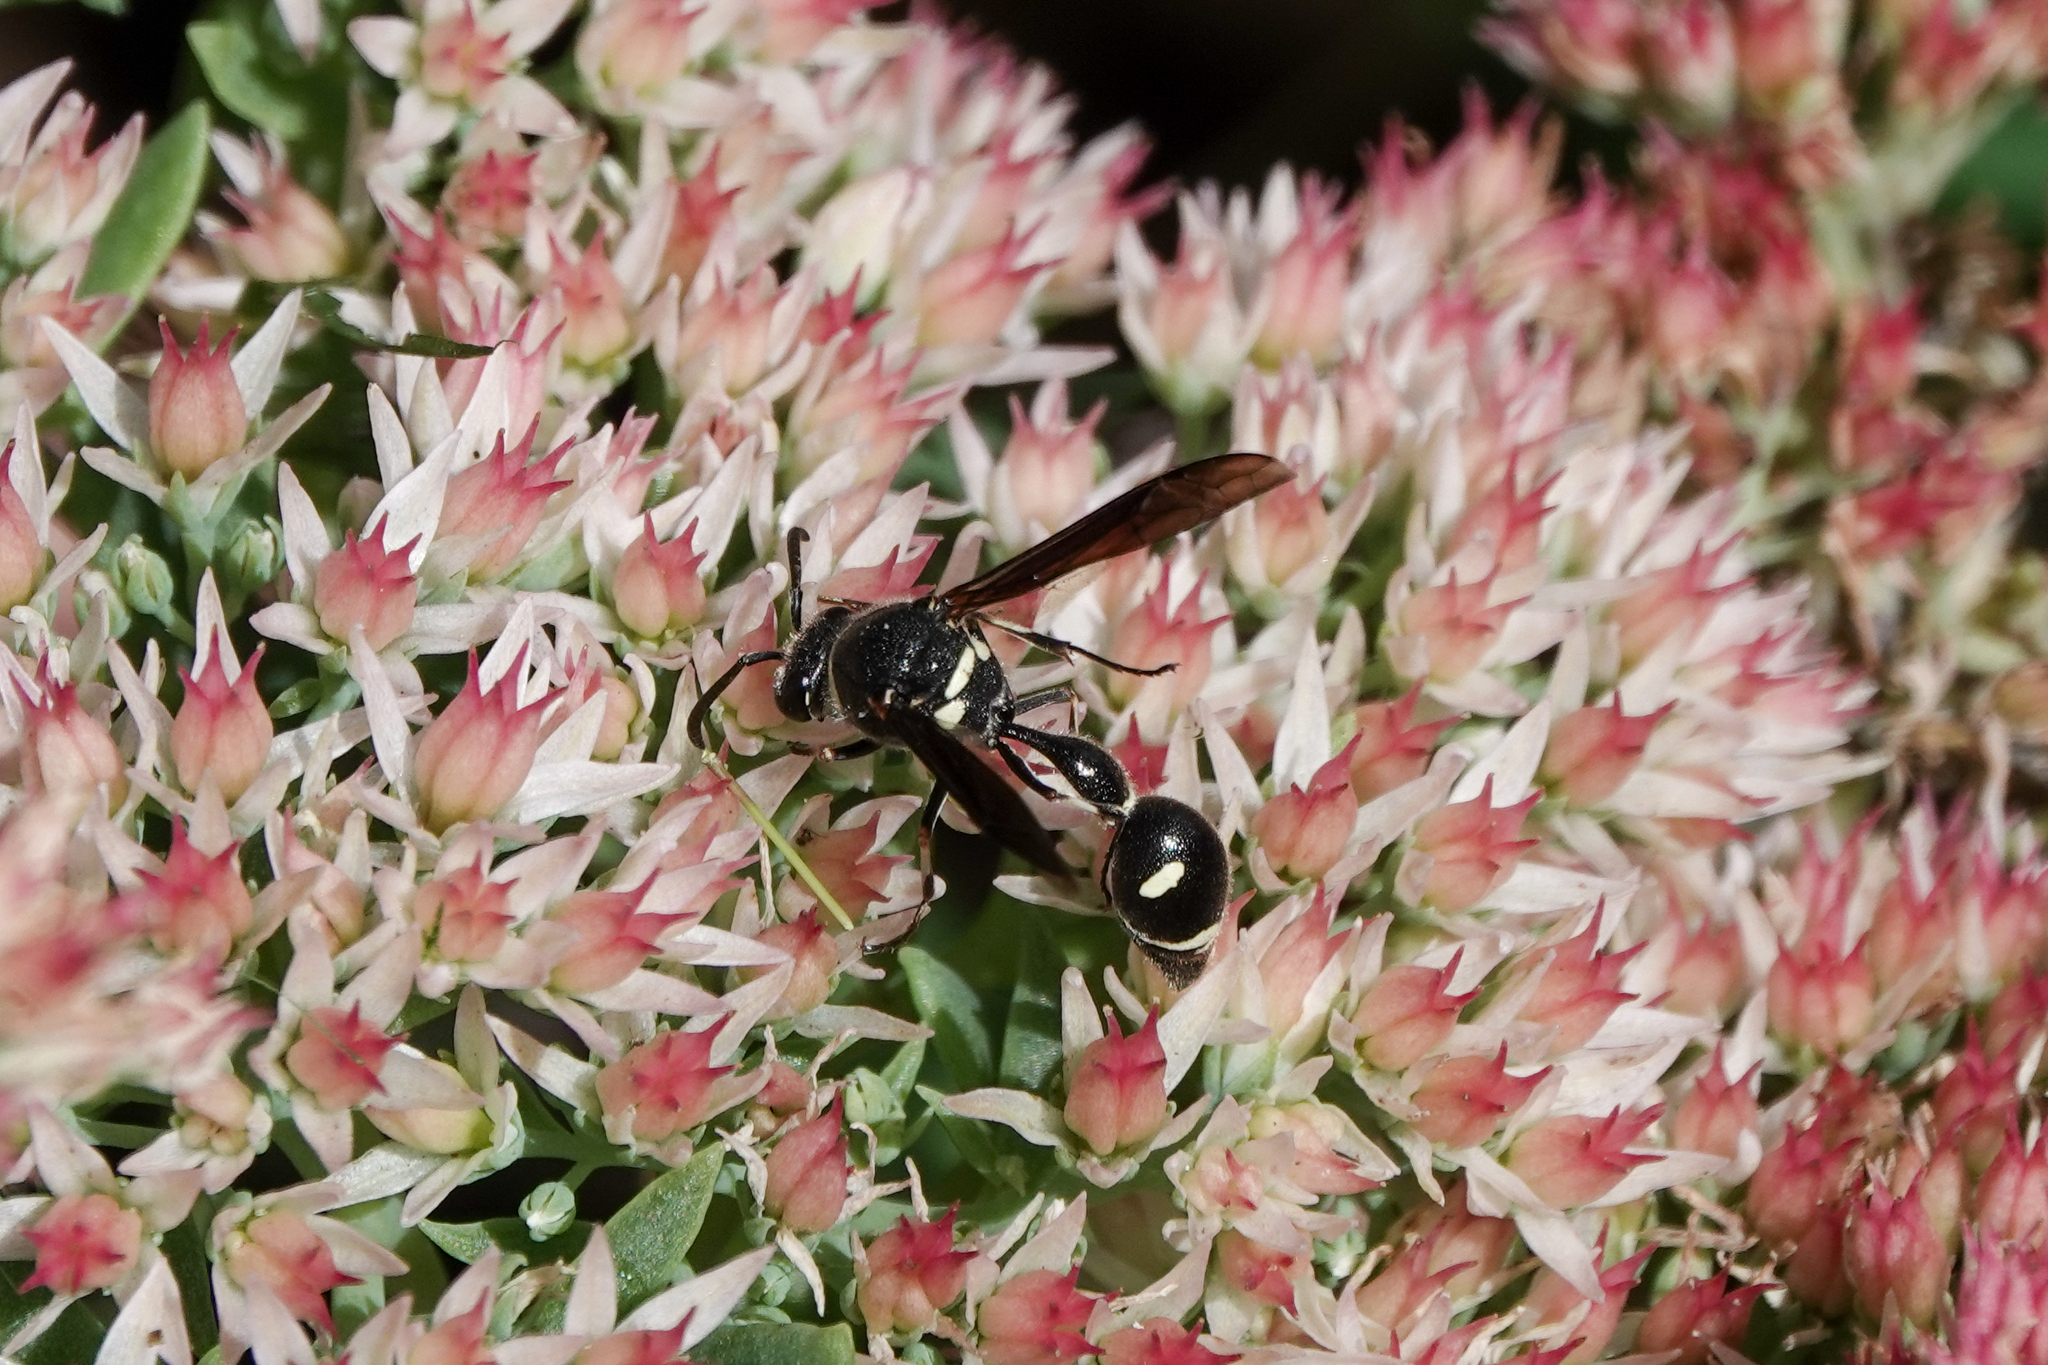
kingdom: Animalia
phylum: Arthropoda
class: Insecta
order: Hymenoptera
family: Vespidae
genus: Eumenes
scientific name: Eumenes fraternus
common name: Fraternal potter wasp
